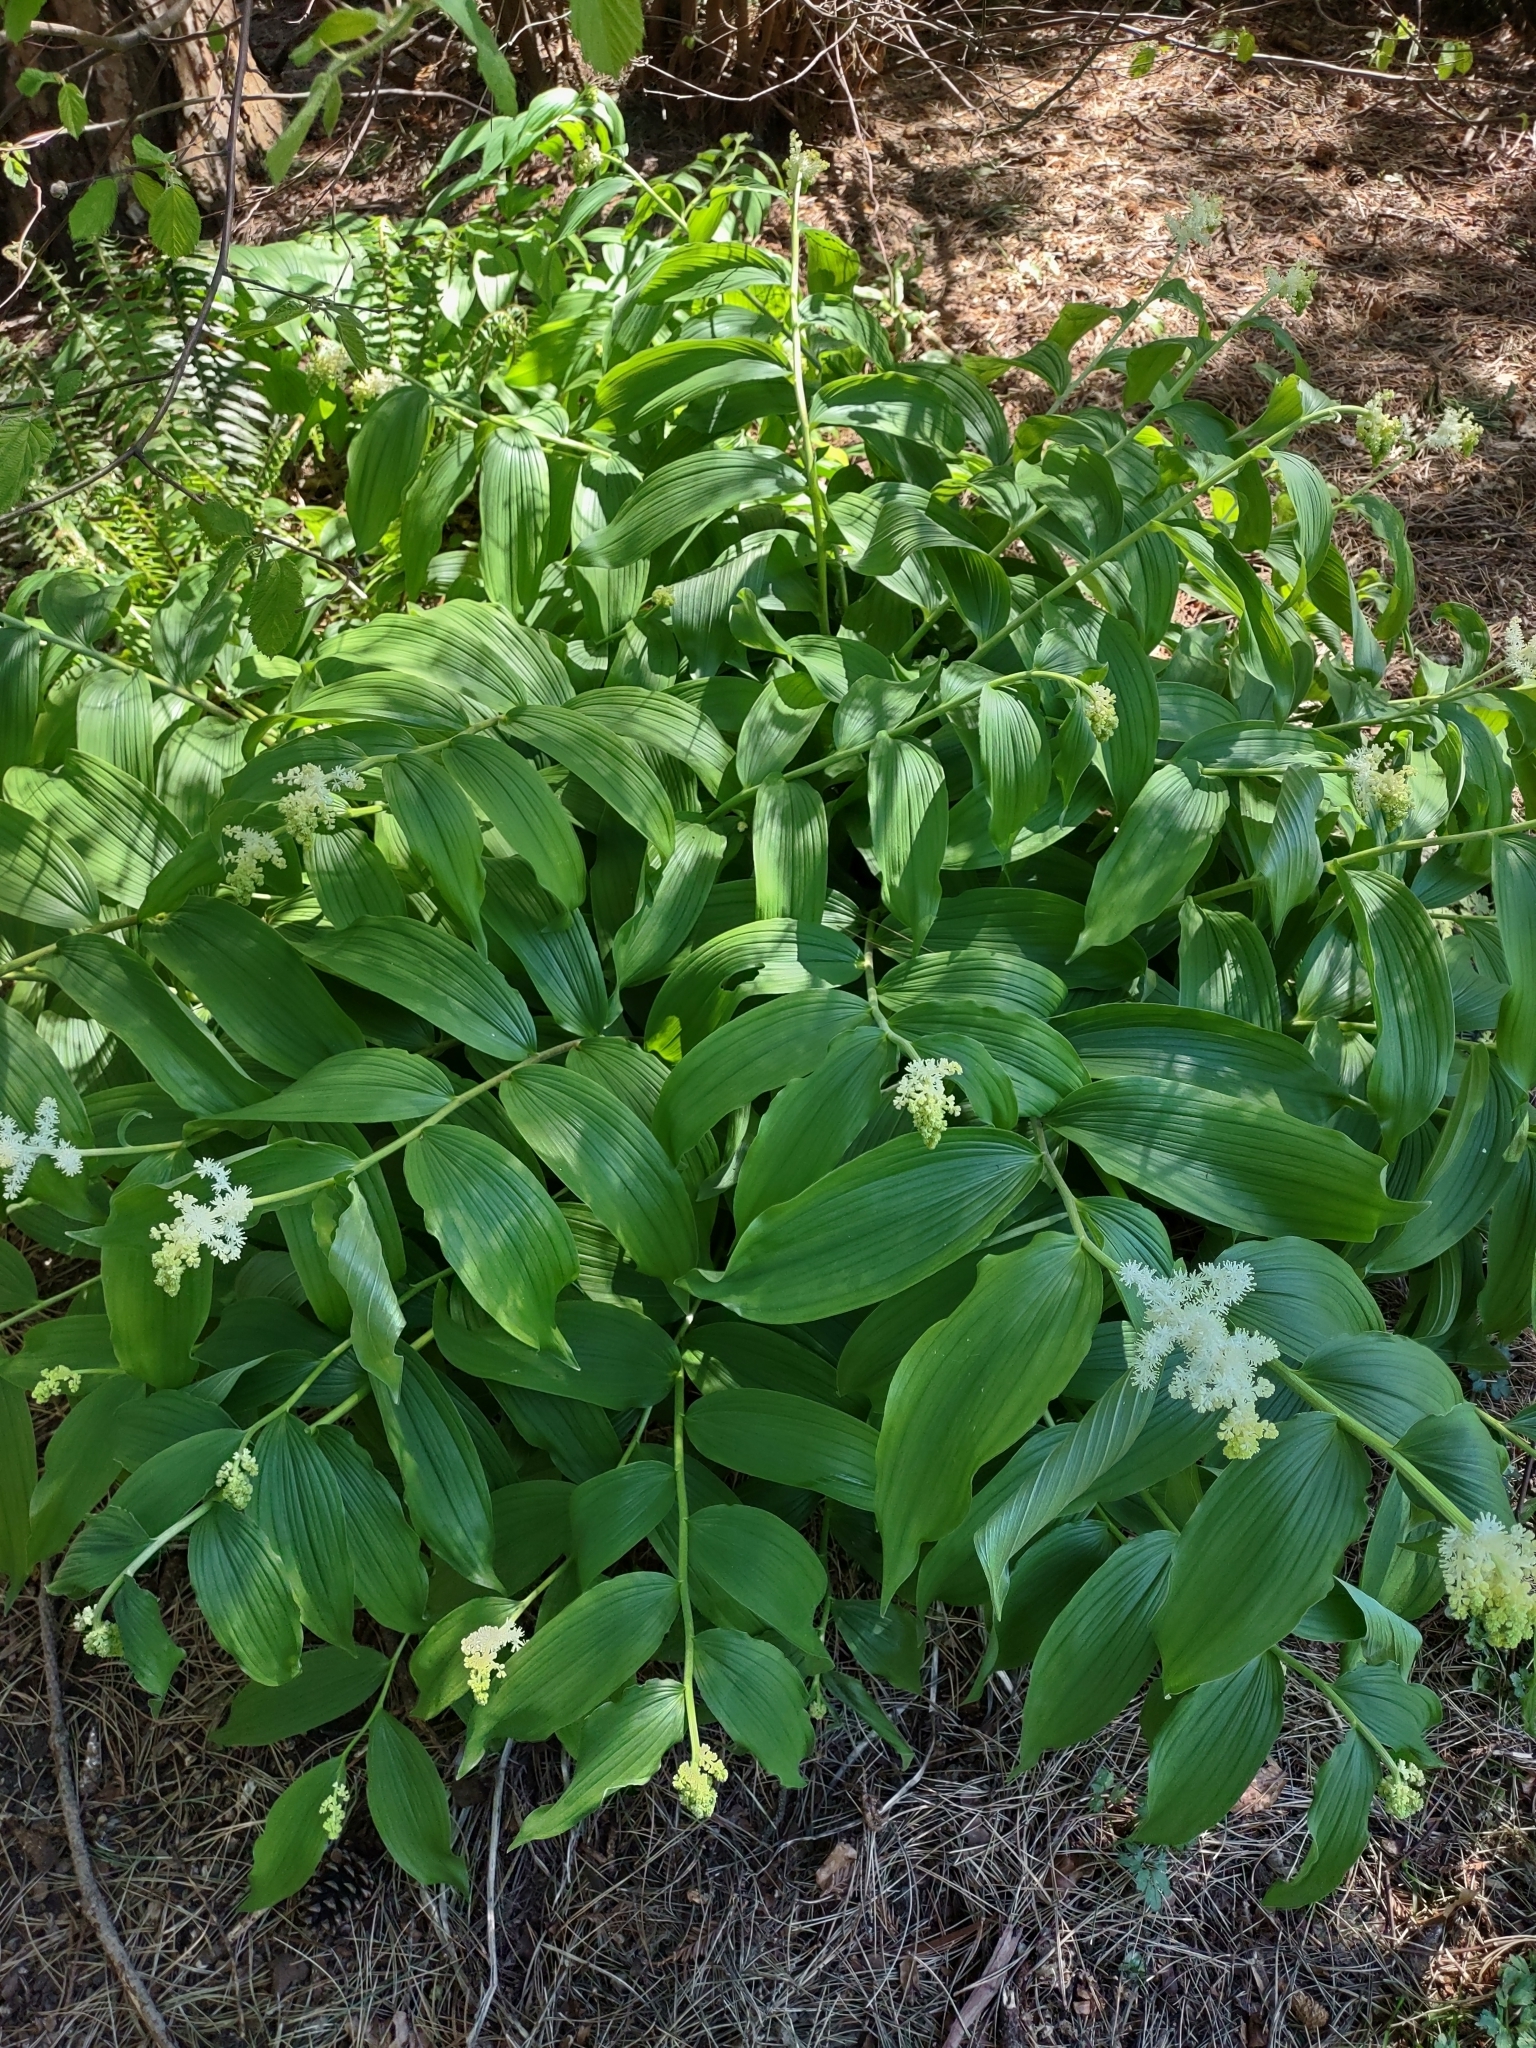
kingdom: Plantae
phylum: Tracheophyta
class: Liliopsida
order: Asparagales
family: Asparagaceae
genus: Maianthemum
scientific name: Maianthemum racemosum
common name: False spikenard
